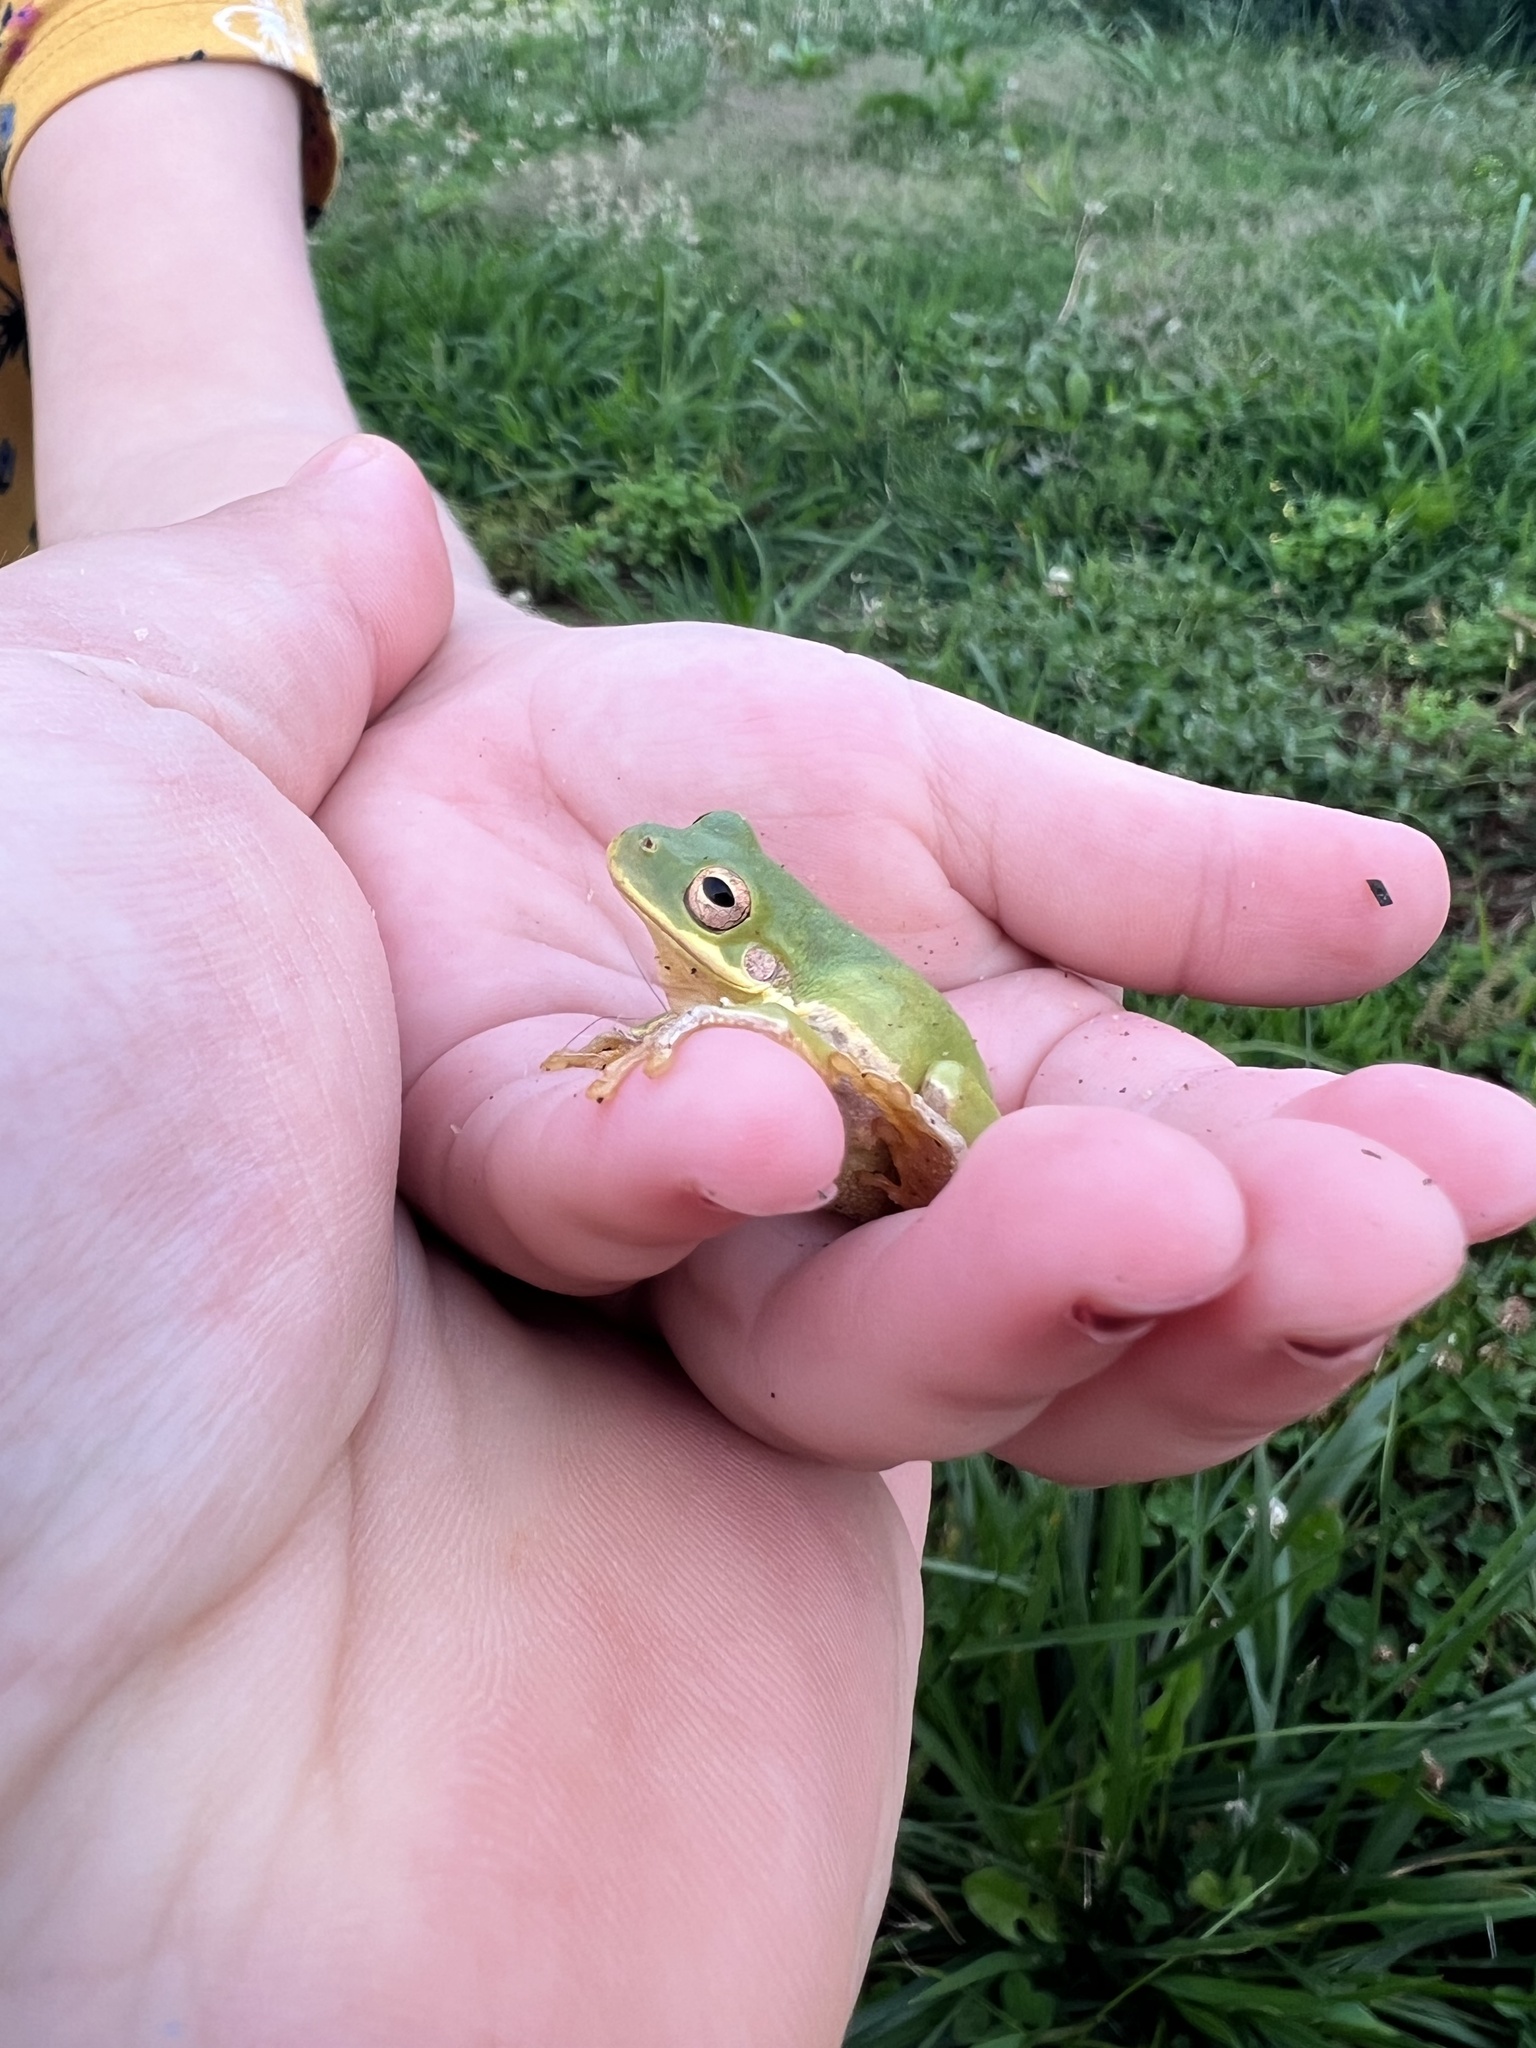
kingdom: Animalia
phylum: Chordata
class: Amphibia
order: Anura
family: Hylidae
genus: Dryophytes
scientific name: Dryophytes squirellus
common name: Squirrel treefrog
